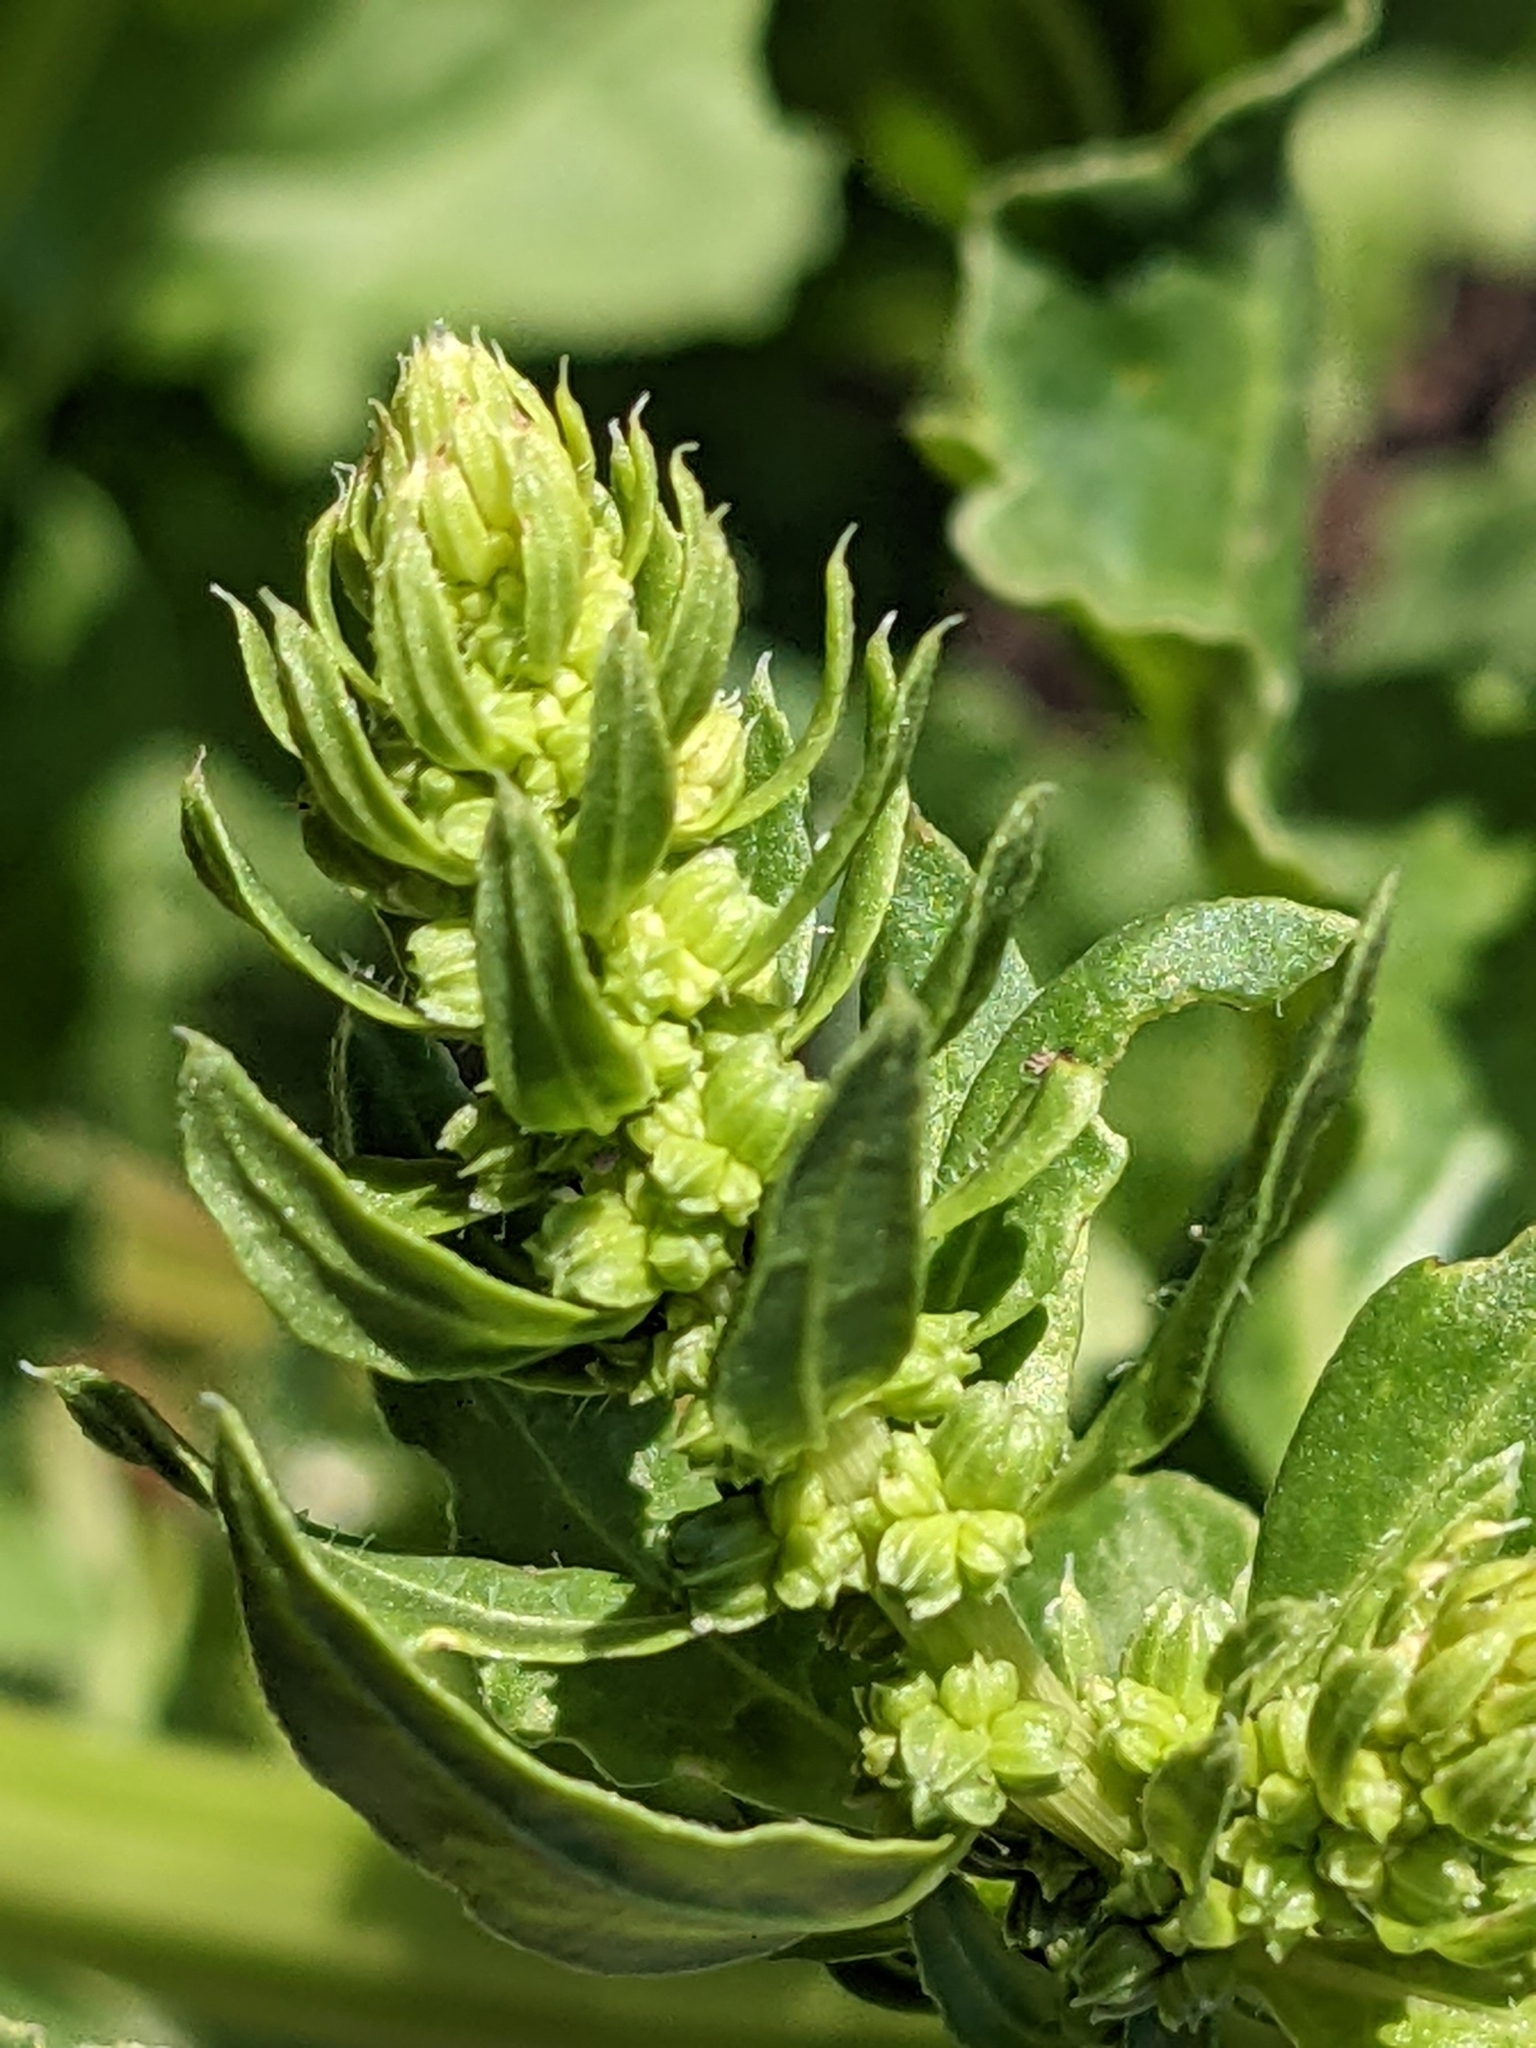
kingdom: Plantae
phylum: Tracheophyta
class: Magnoliopsida
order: Caryophyllales
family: Amaranthaceae
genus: Beta
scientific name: Beta vulgaris
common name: Beet
